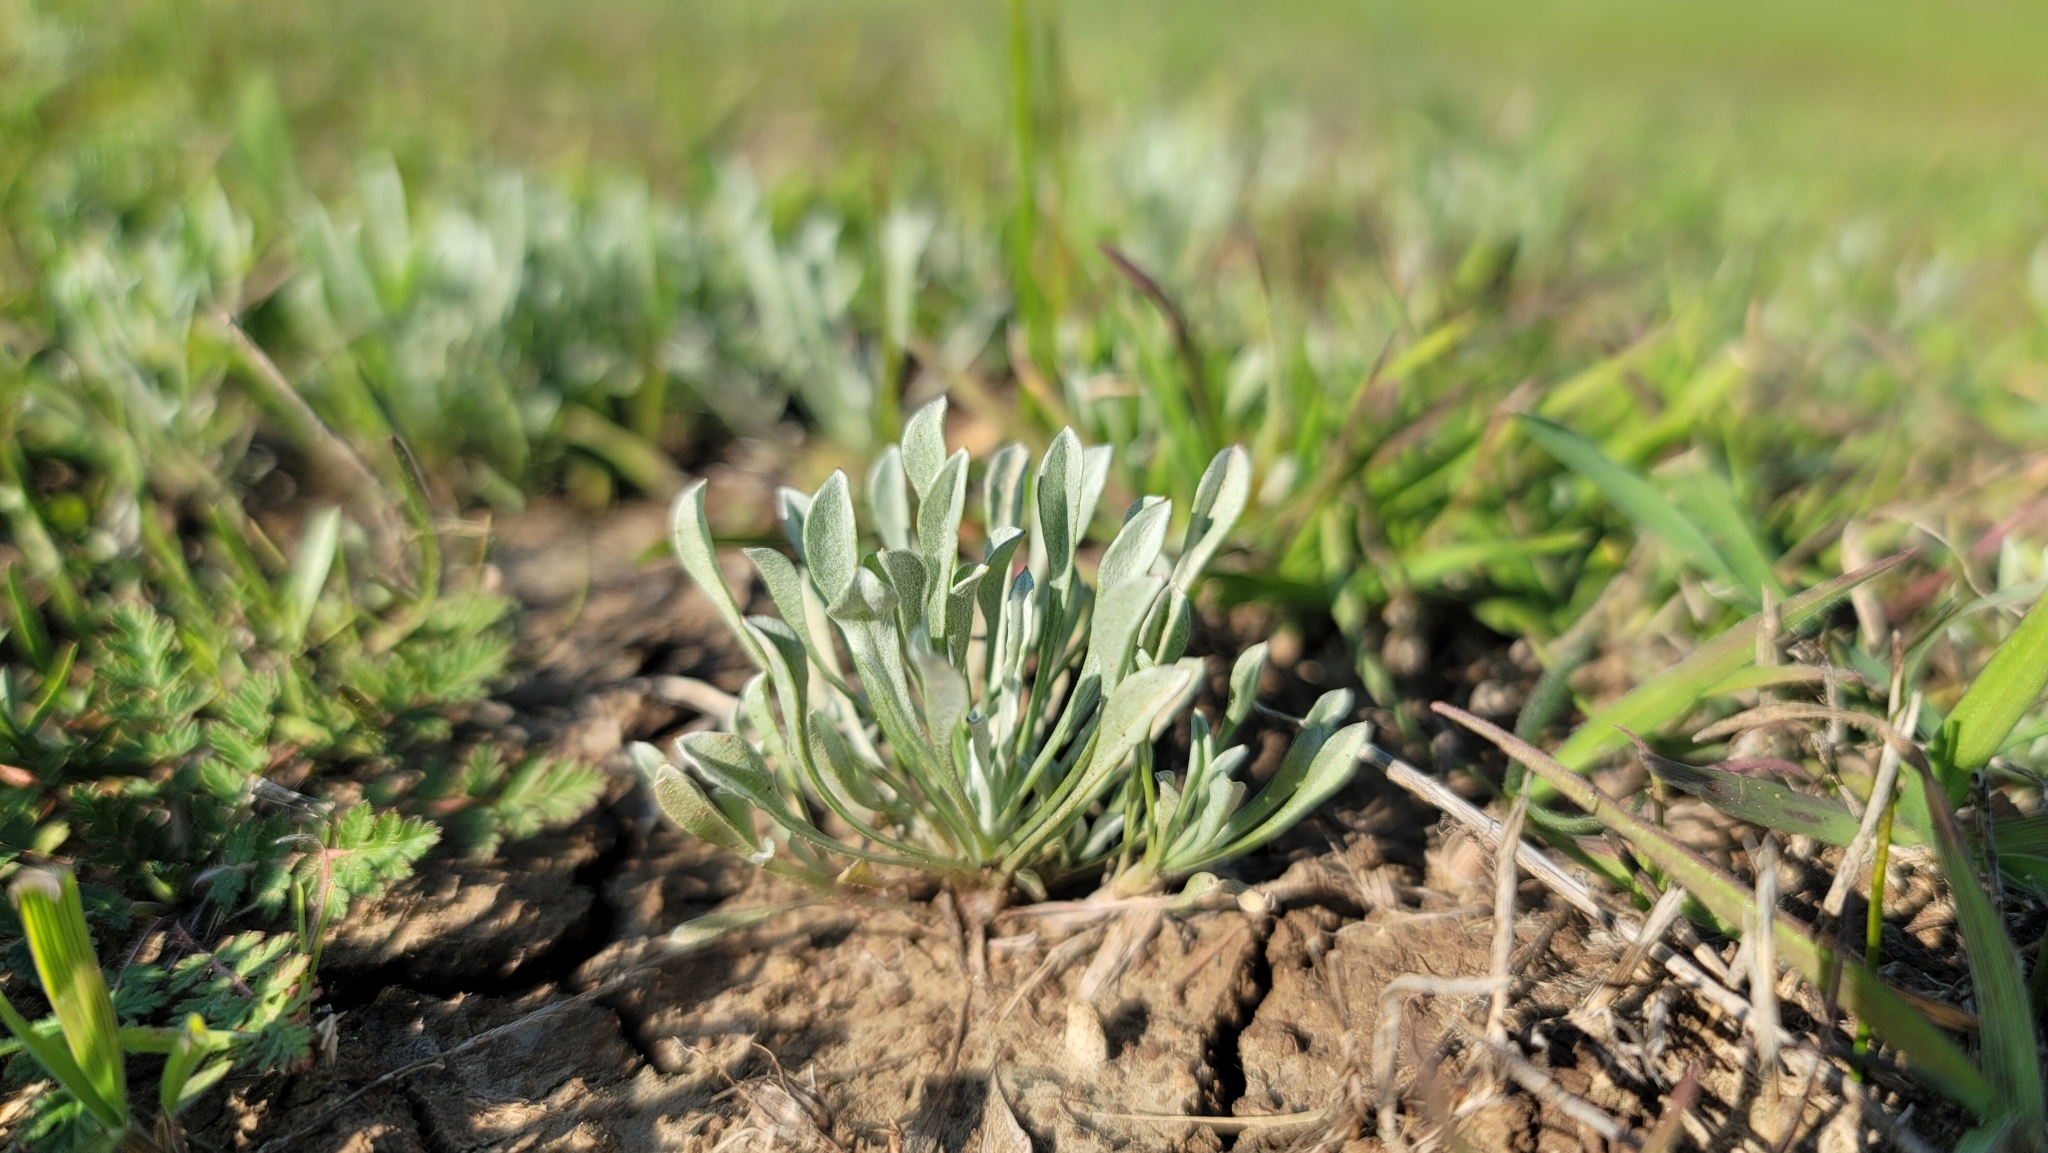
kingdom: Plantae
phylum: Tracheophyta
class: Magnoliopsida
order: Asterales
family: Asteraceae
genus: Hesperevax
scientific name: Hesperevax caulescens
